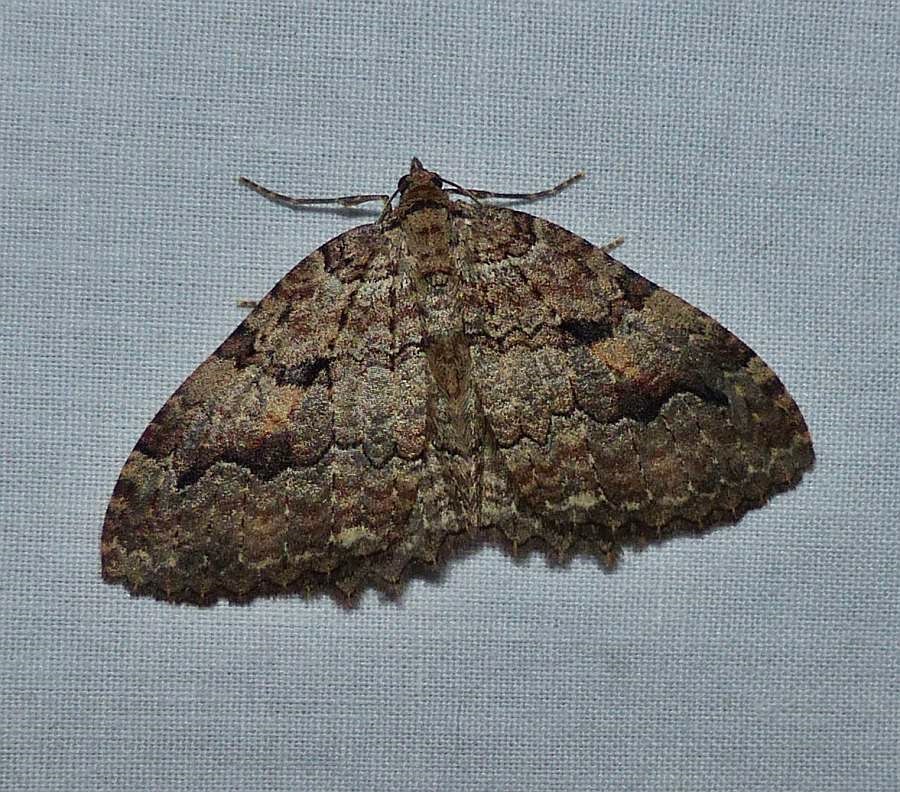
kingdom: Animalia
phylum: Arthropoda
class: Insecta
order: Lepidoptera
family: Geometridae
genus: Triphosa
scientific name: Triphosa haesitata
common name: Tissue moth
